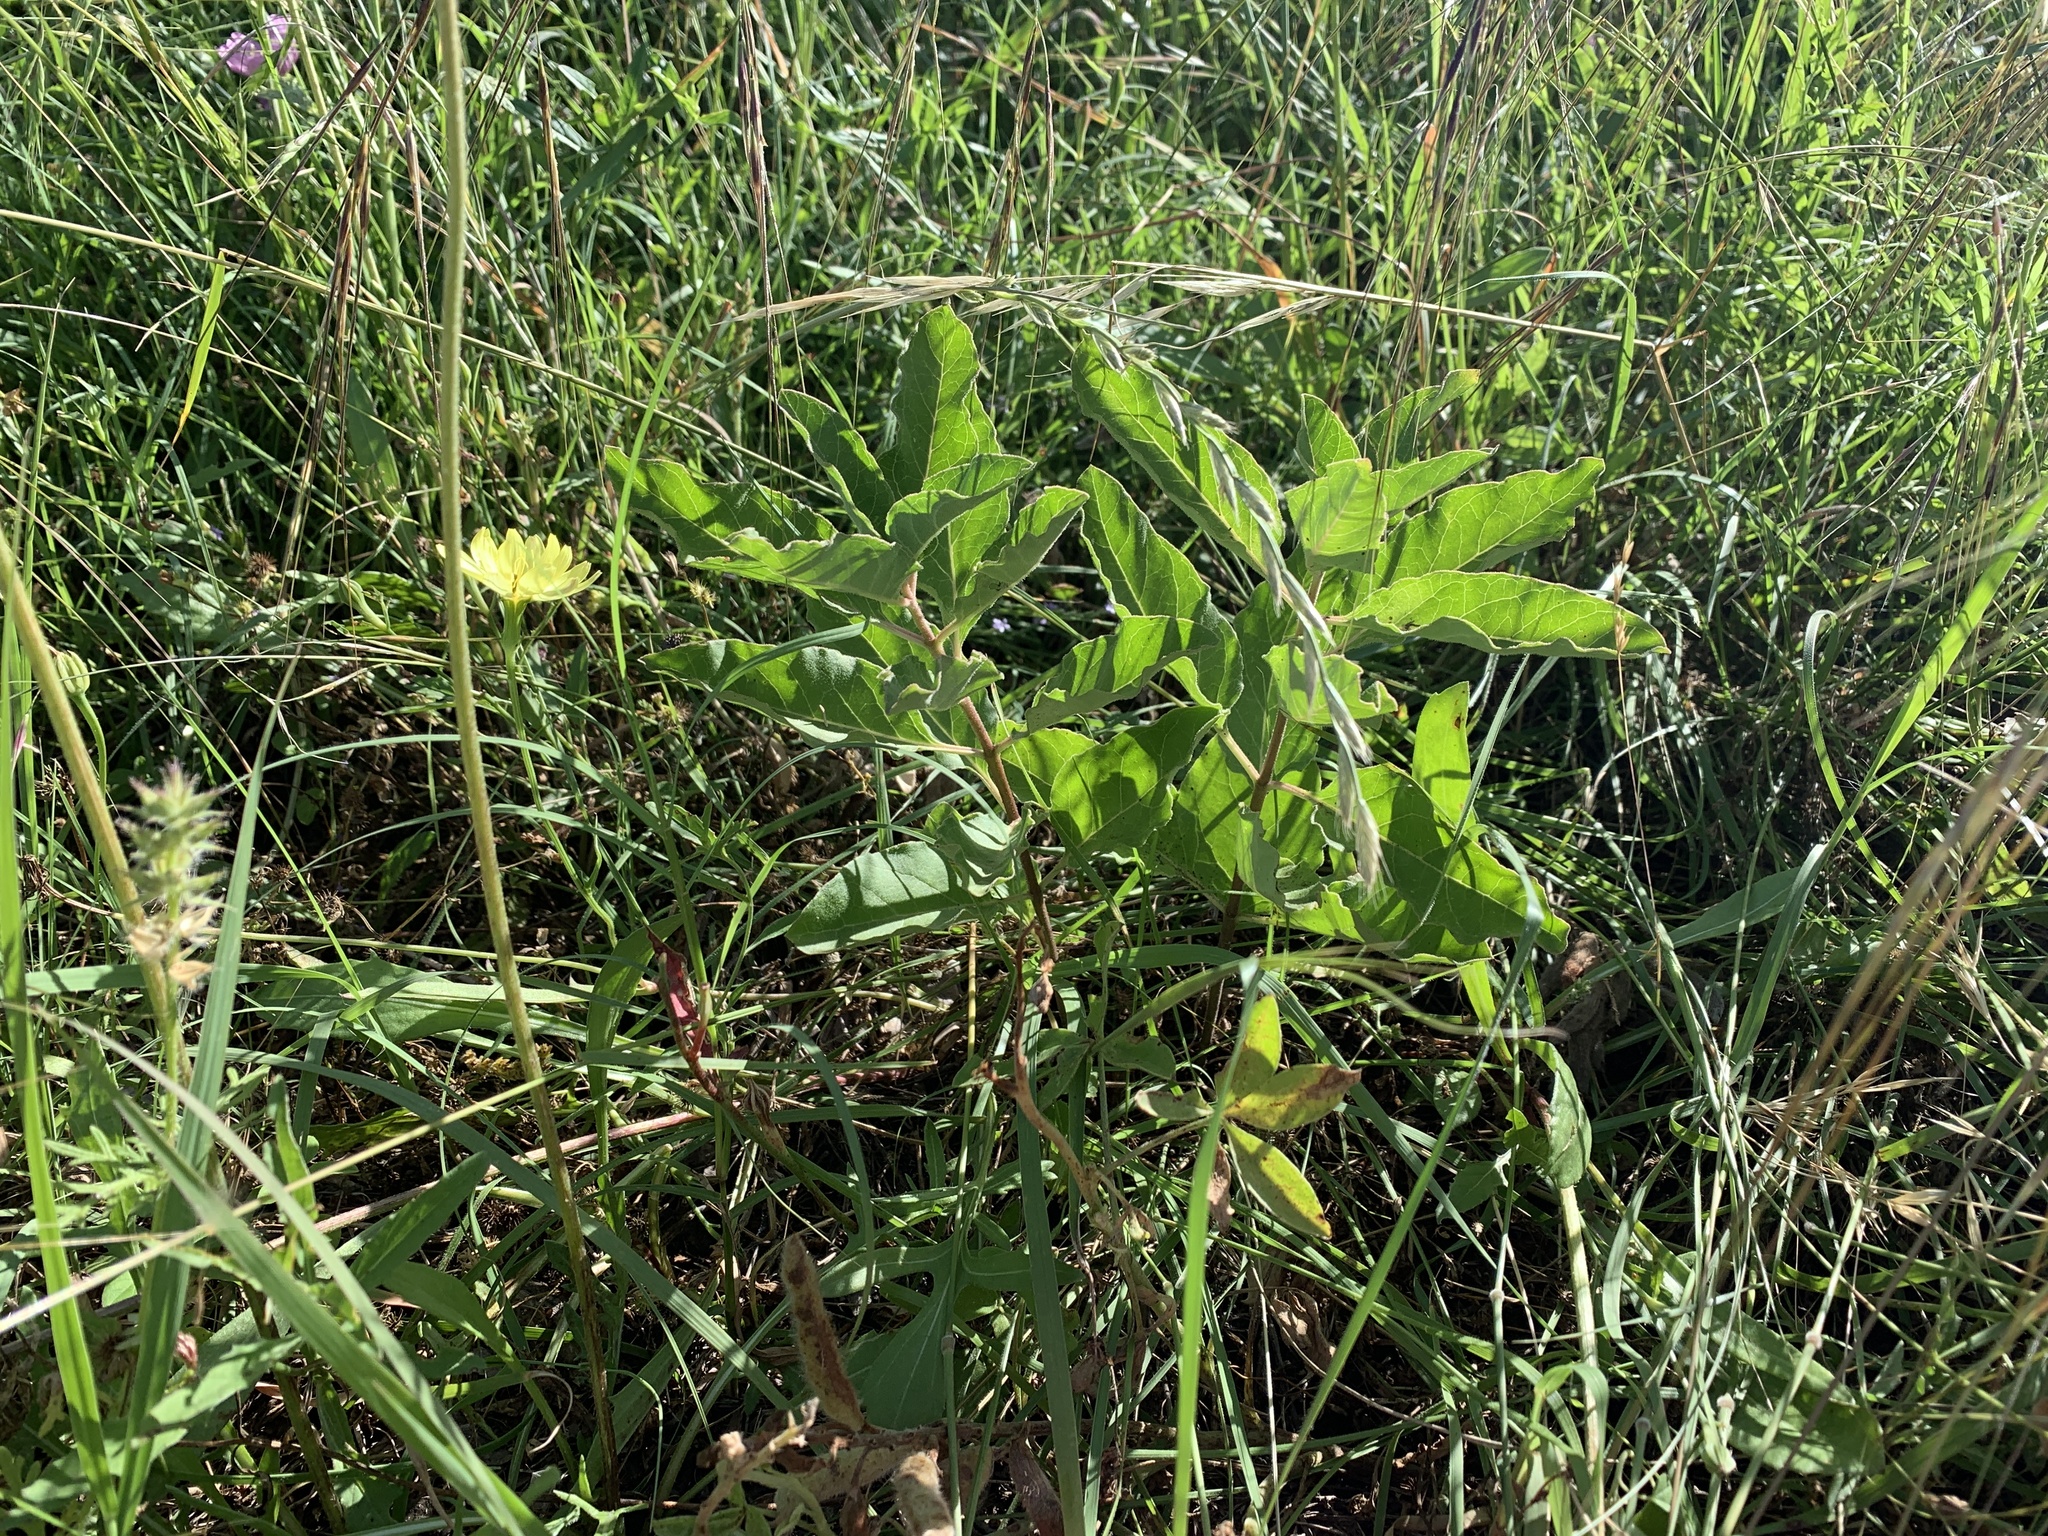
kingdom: Plantae
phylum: Tracheophyta
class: Magnoliopsida
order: Gentianales
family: Apocynaceae
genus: Asclepias
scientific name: Asclepias oenotheroides
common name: Zizotes milkweed
